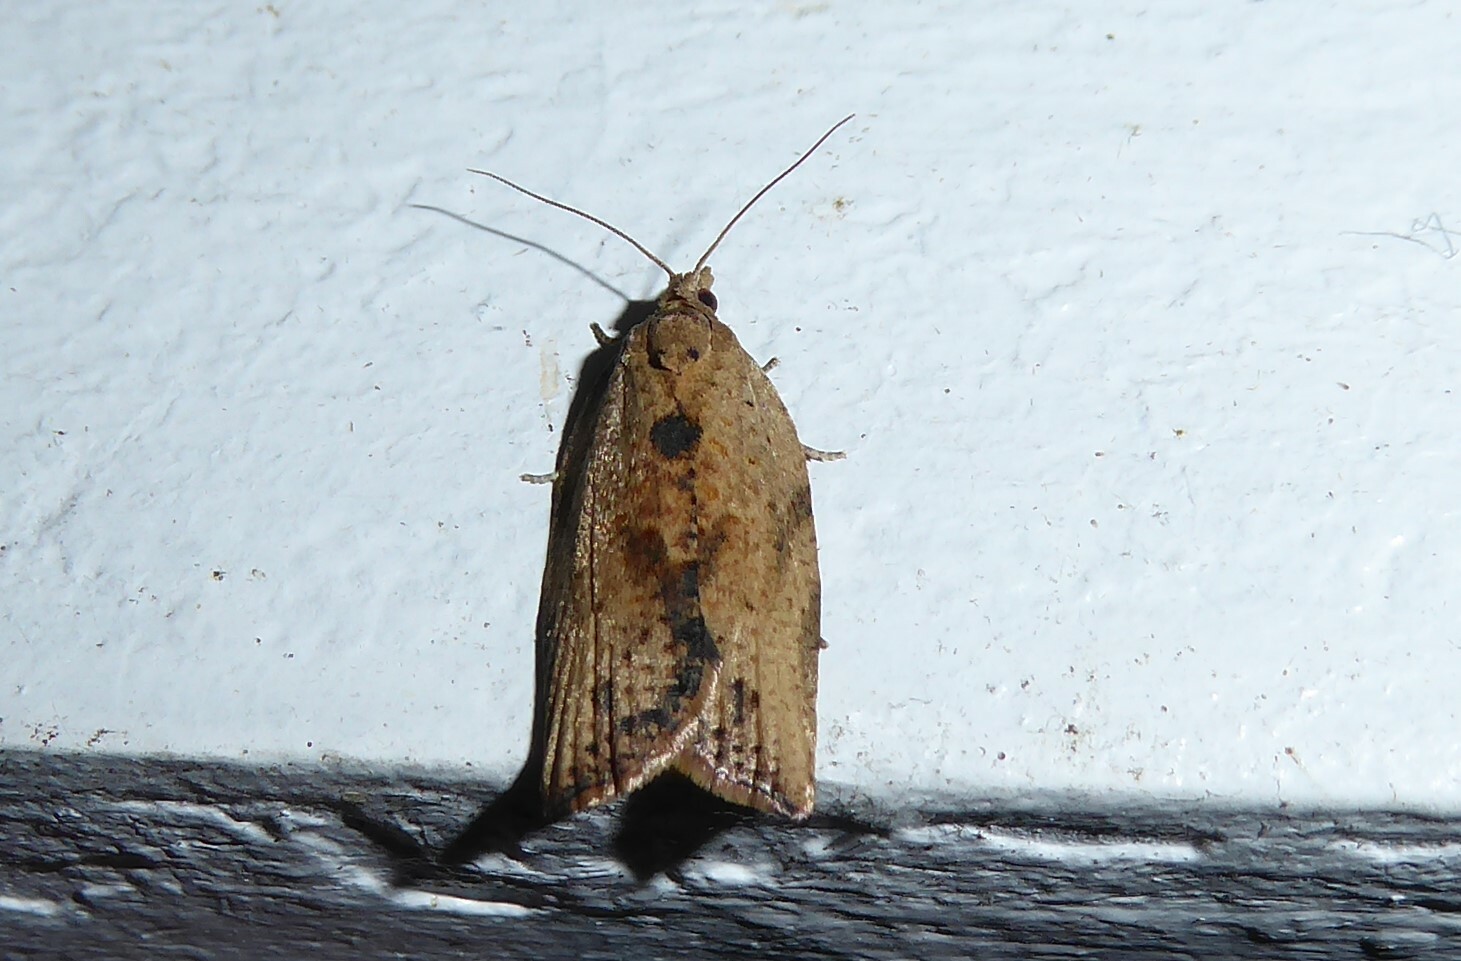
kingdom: Animalia
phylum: Arthropoda
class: Insecta
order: Lepidoptera
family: Tortricidae
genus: Epiphyas
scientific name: Epiphyas postvittana
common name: Light brown apple moth
